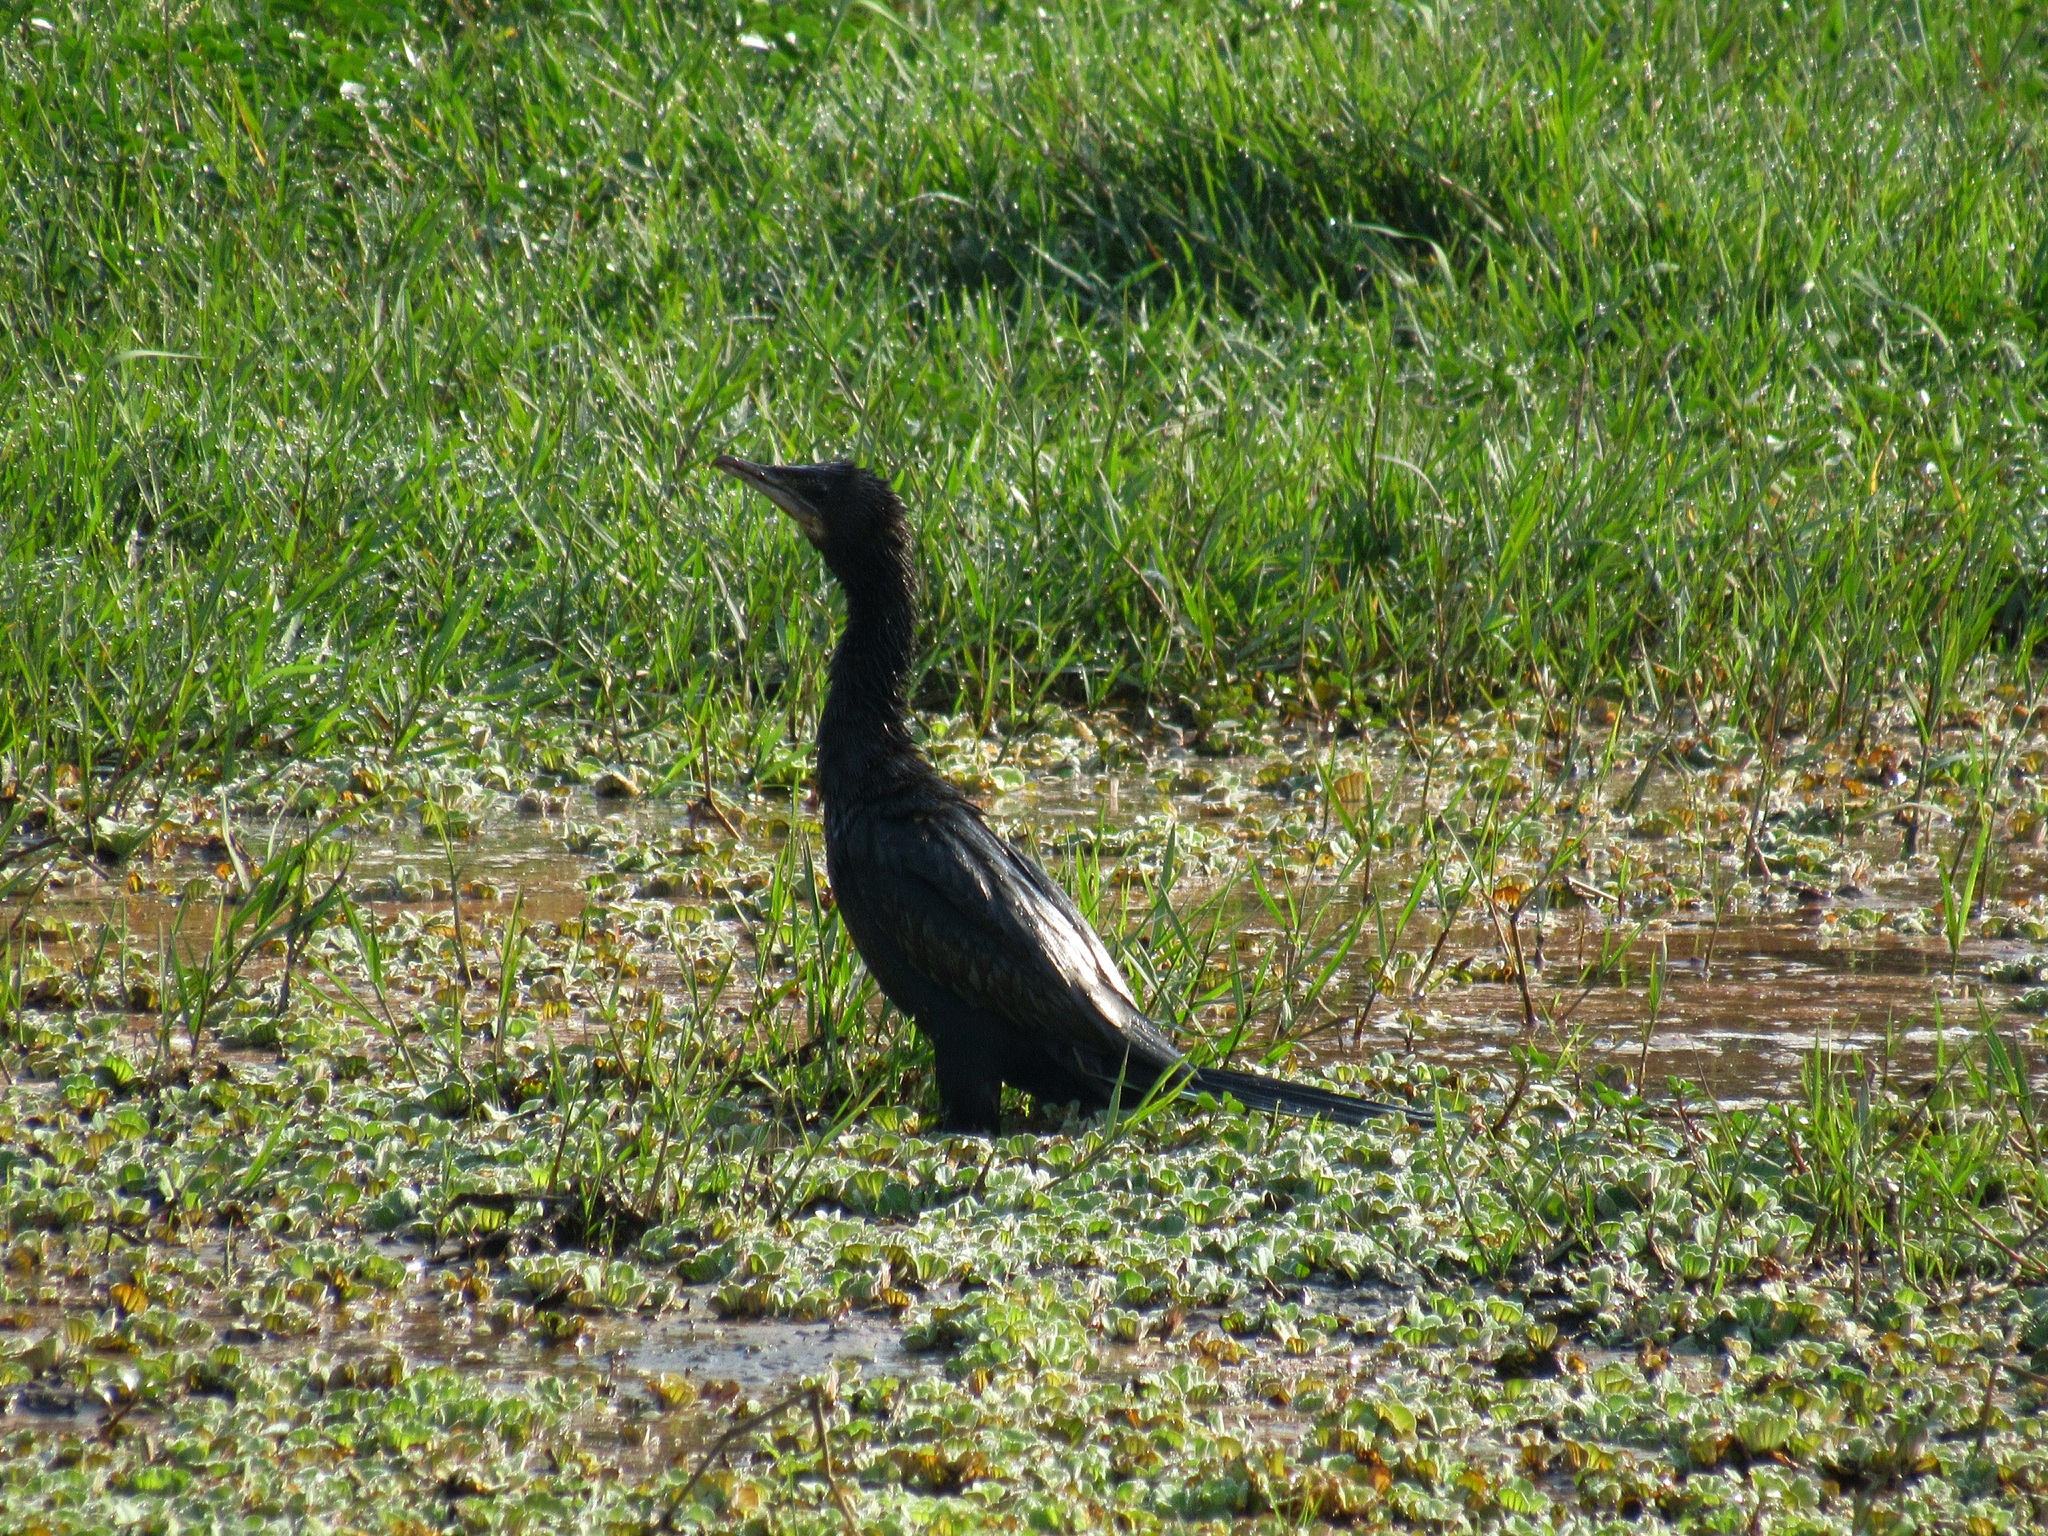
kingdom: Animalia
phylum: Chordata
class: Aves
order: Suliformes
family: Phalacrocoracidae
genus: Microcarbo
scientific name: Microcarbo niger
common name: Little cormorant
